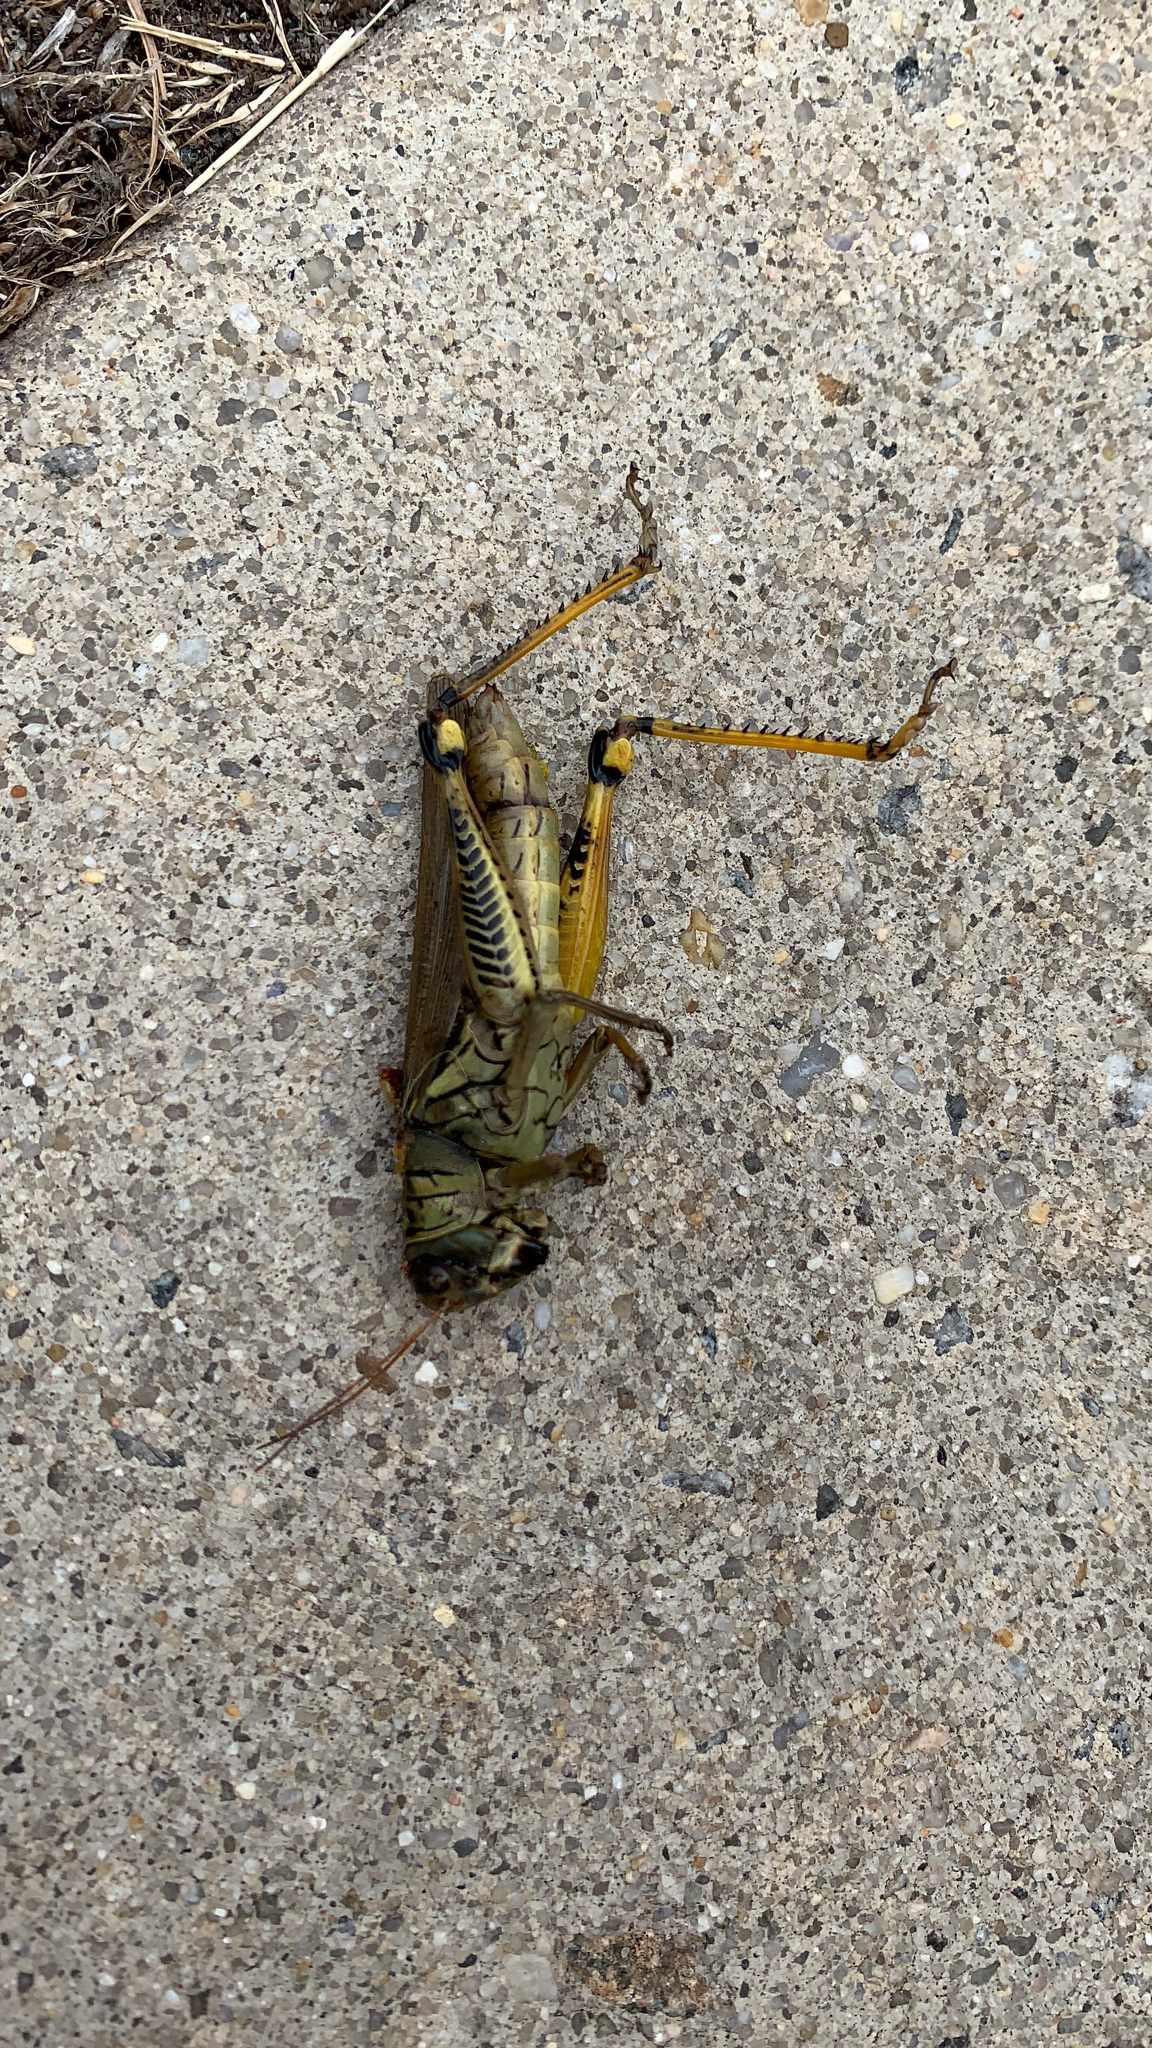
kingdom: Animalia
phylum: Arthropoda
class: Insecta
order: Orthoptera
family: Acrididae
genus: Melanoplus
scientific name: Melanoplus differentialis
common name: Differential grasshopper
